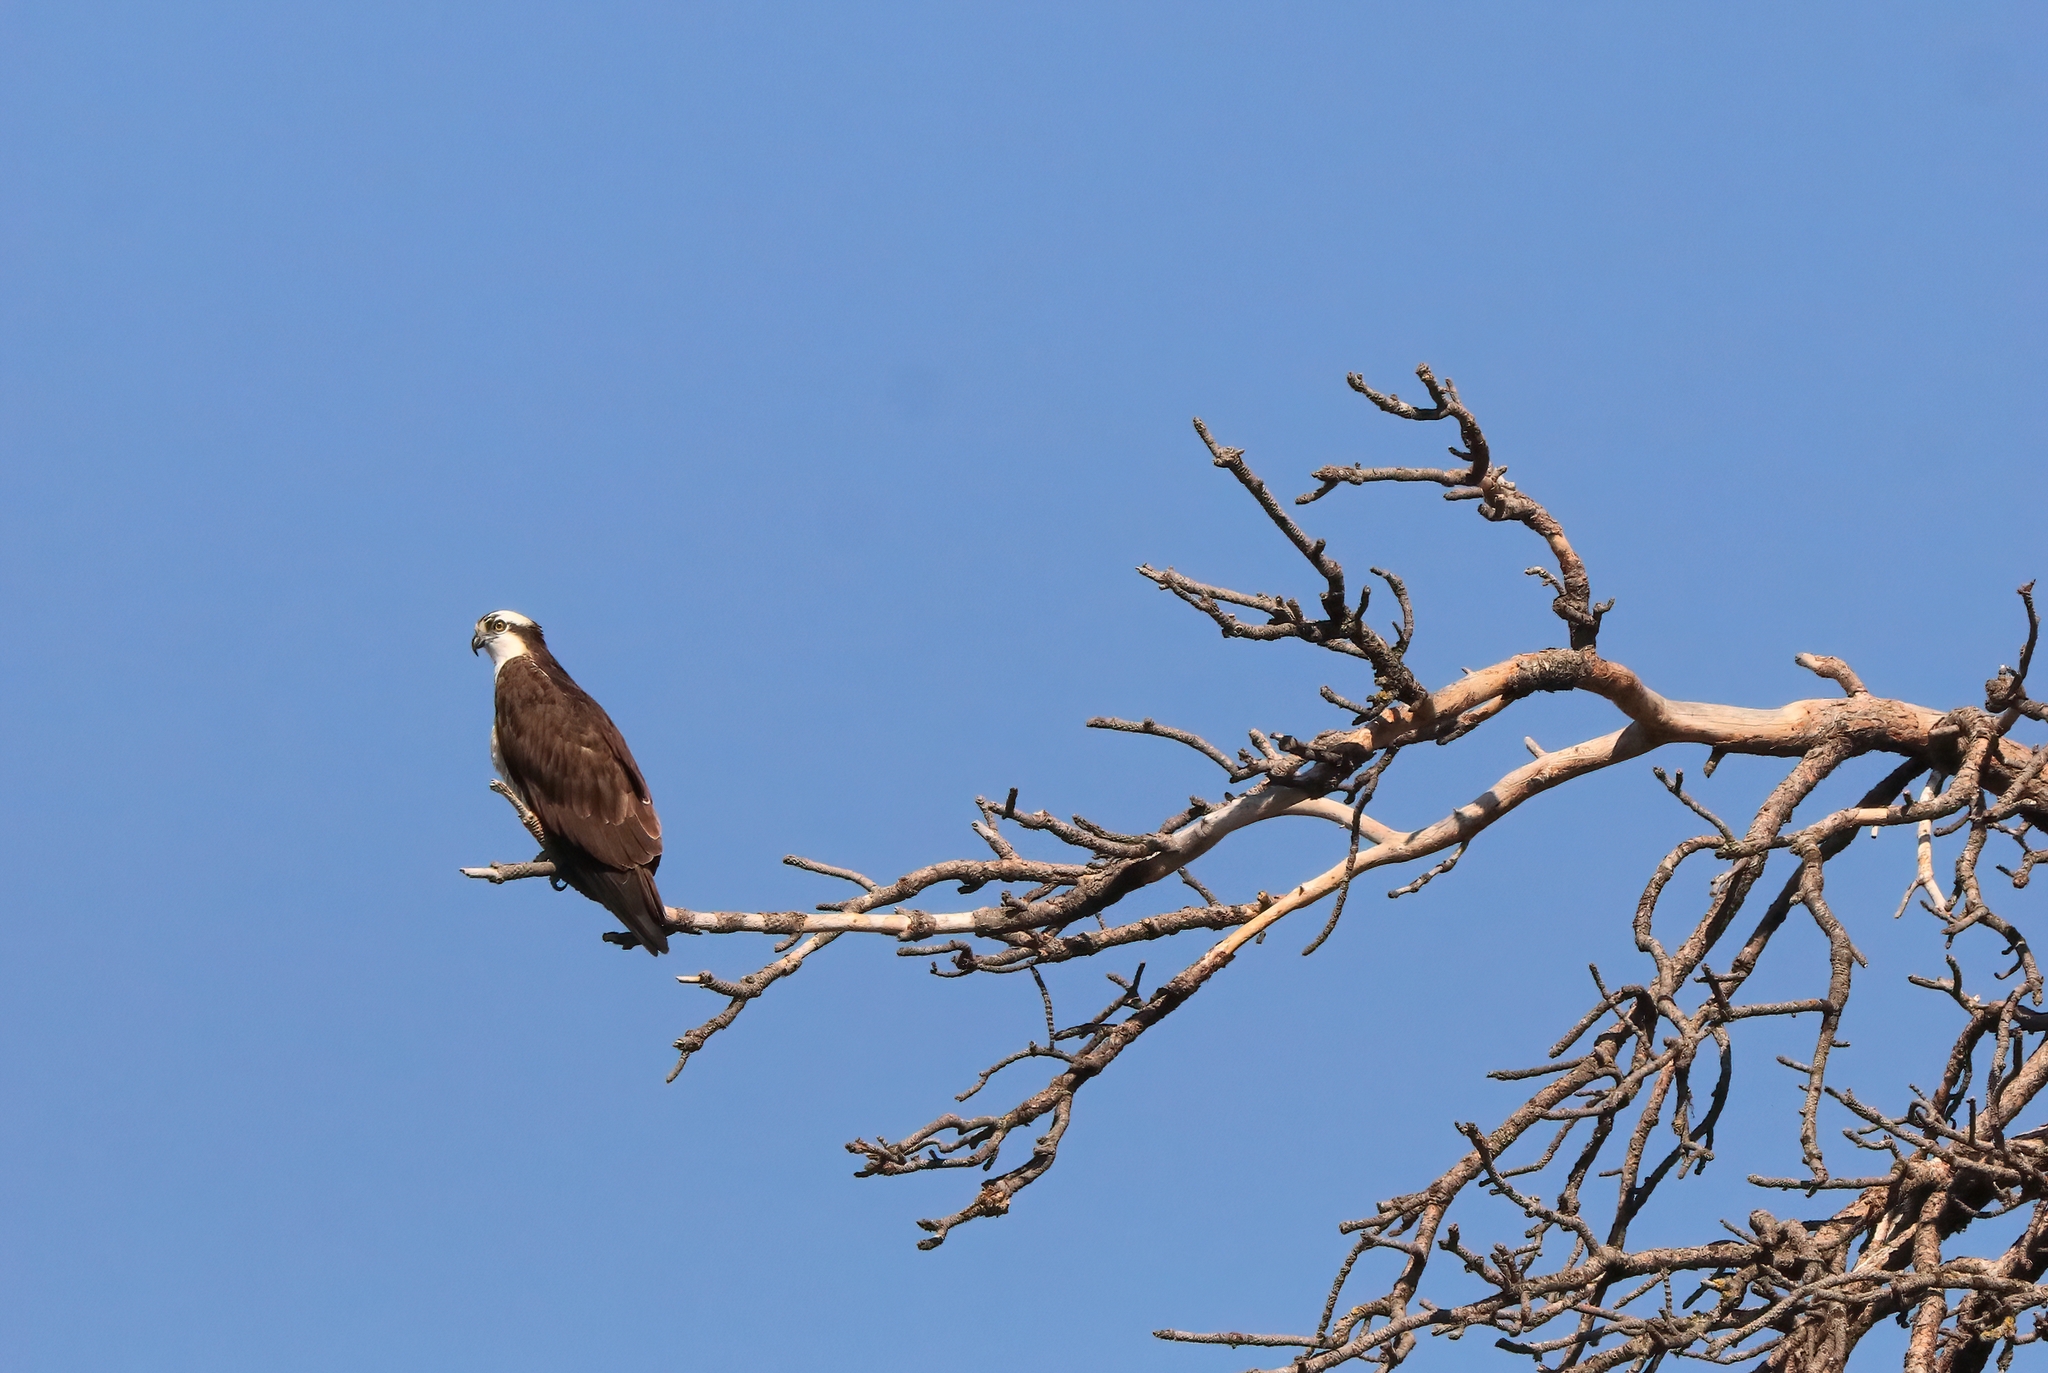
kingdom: Animalia
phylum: Chordata
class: Aves
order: Accipitriformes
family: Pandionidae
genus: Pandion
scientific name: Pandion haliaetus
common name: Osprey
